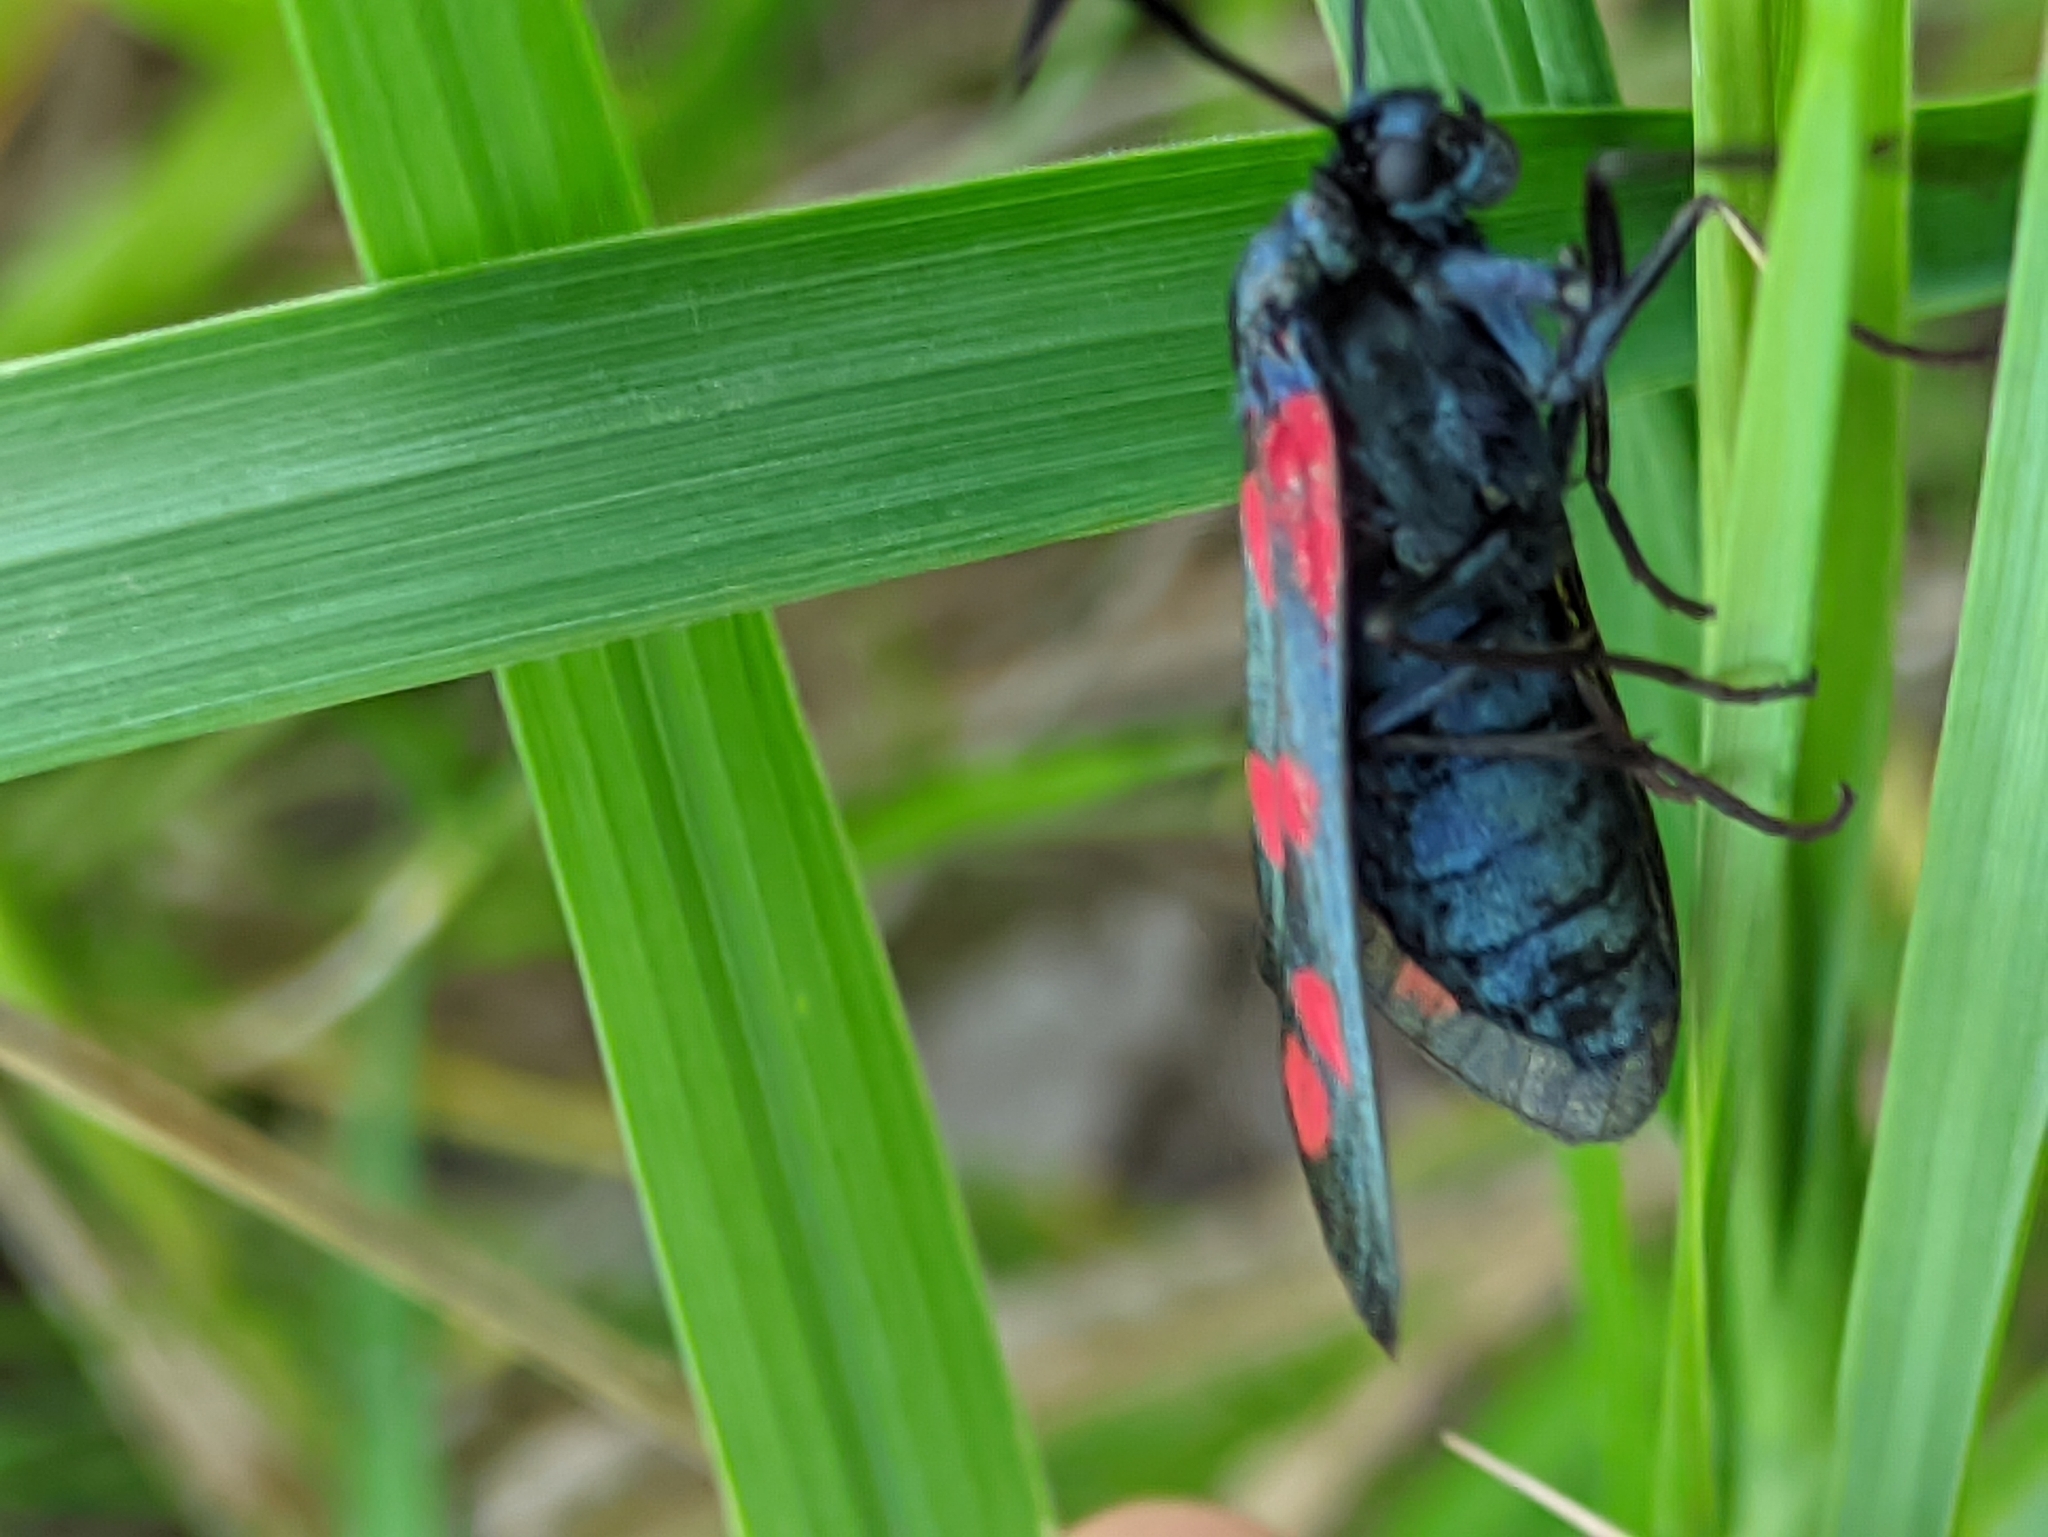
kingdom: Animalia
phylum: Arthropoda
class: Insecta
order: Lepidoptera
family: Zygaenidae
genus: Zygaena
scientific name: Zygaena filipendulae
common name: Six-spot burnet
